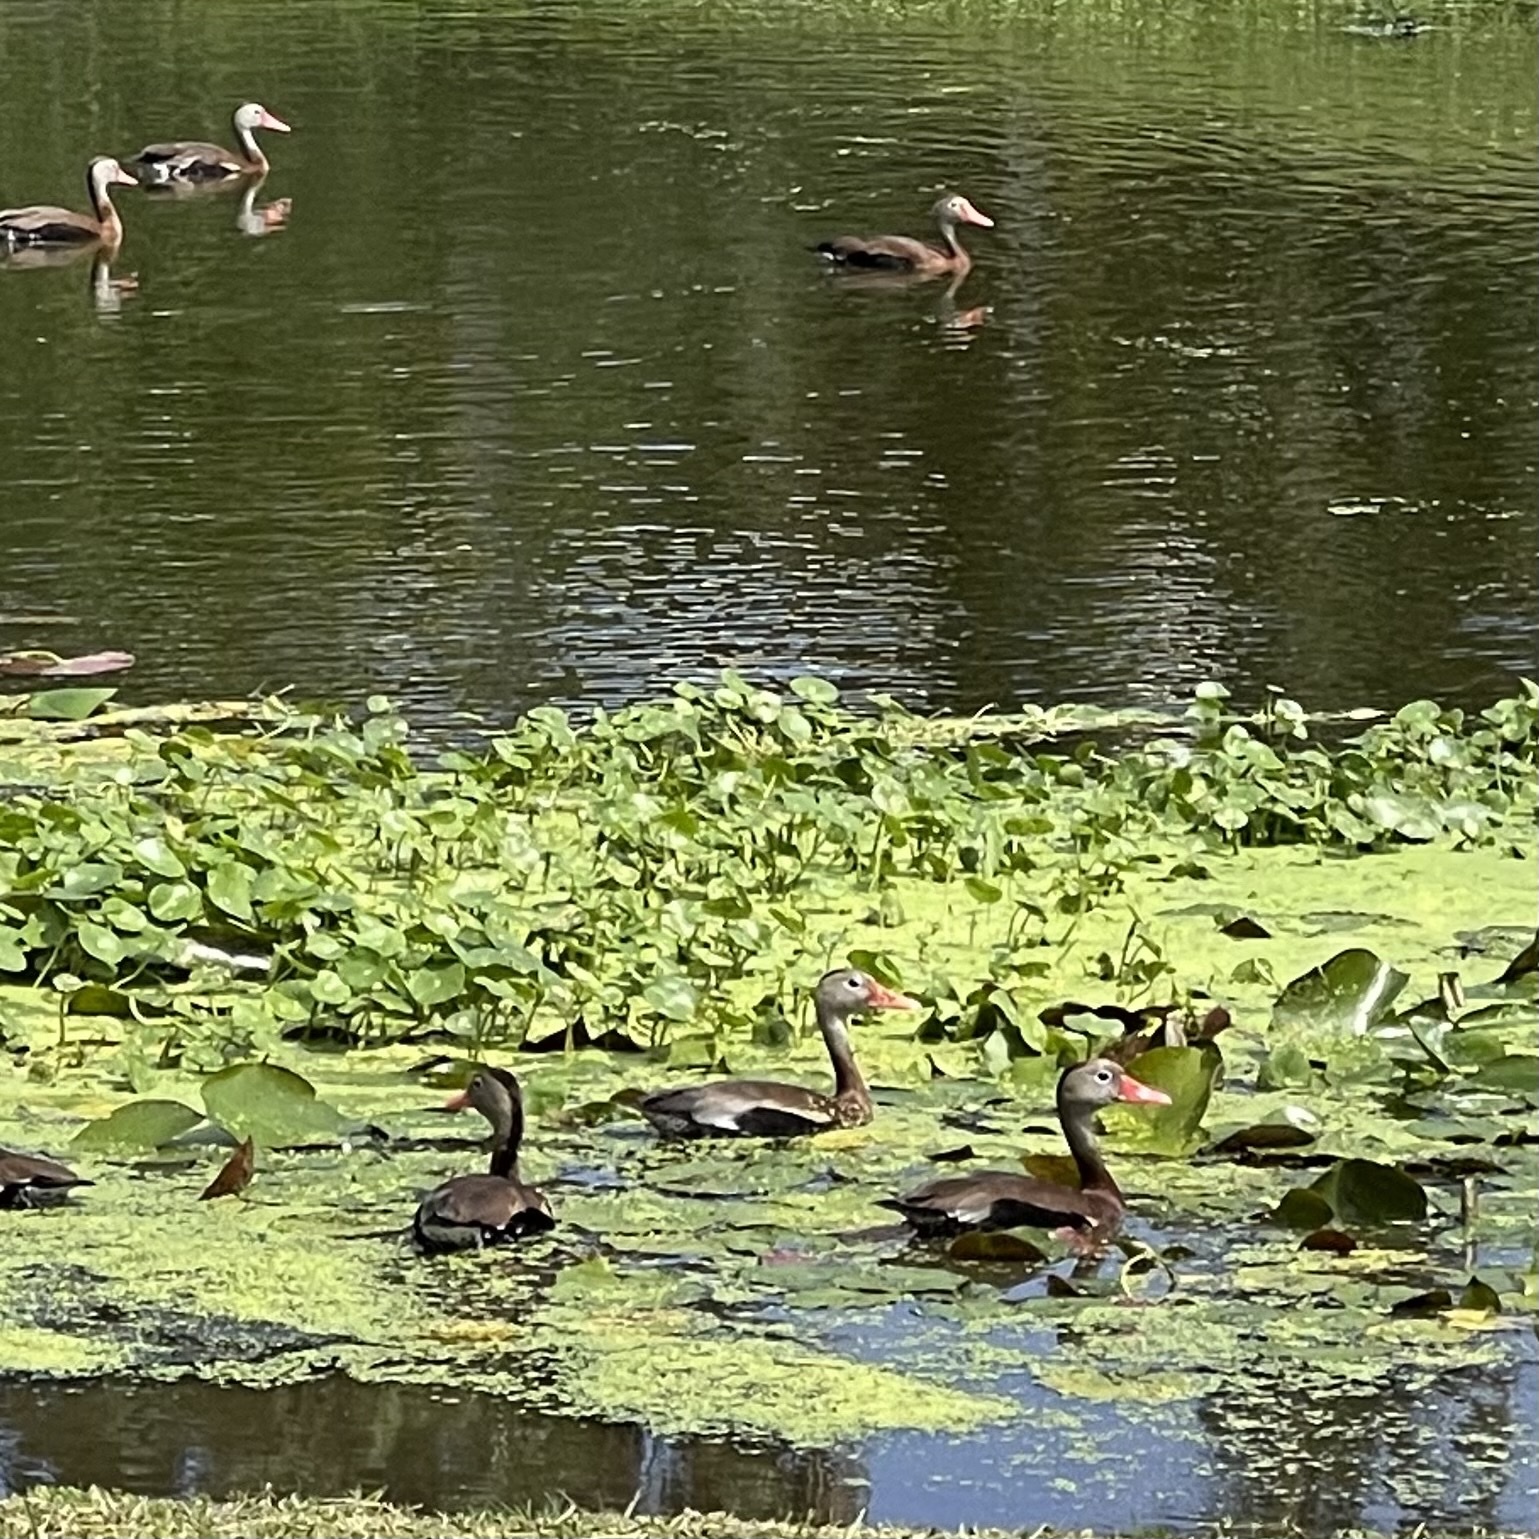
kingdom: Animalia
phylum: Chordata
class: Aves
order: Anseriformes
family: Anatidae
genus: Dendrocygna
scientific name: Dendrocygna autumnalis
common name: Black-bellied whistling duck
